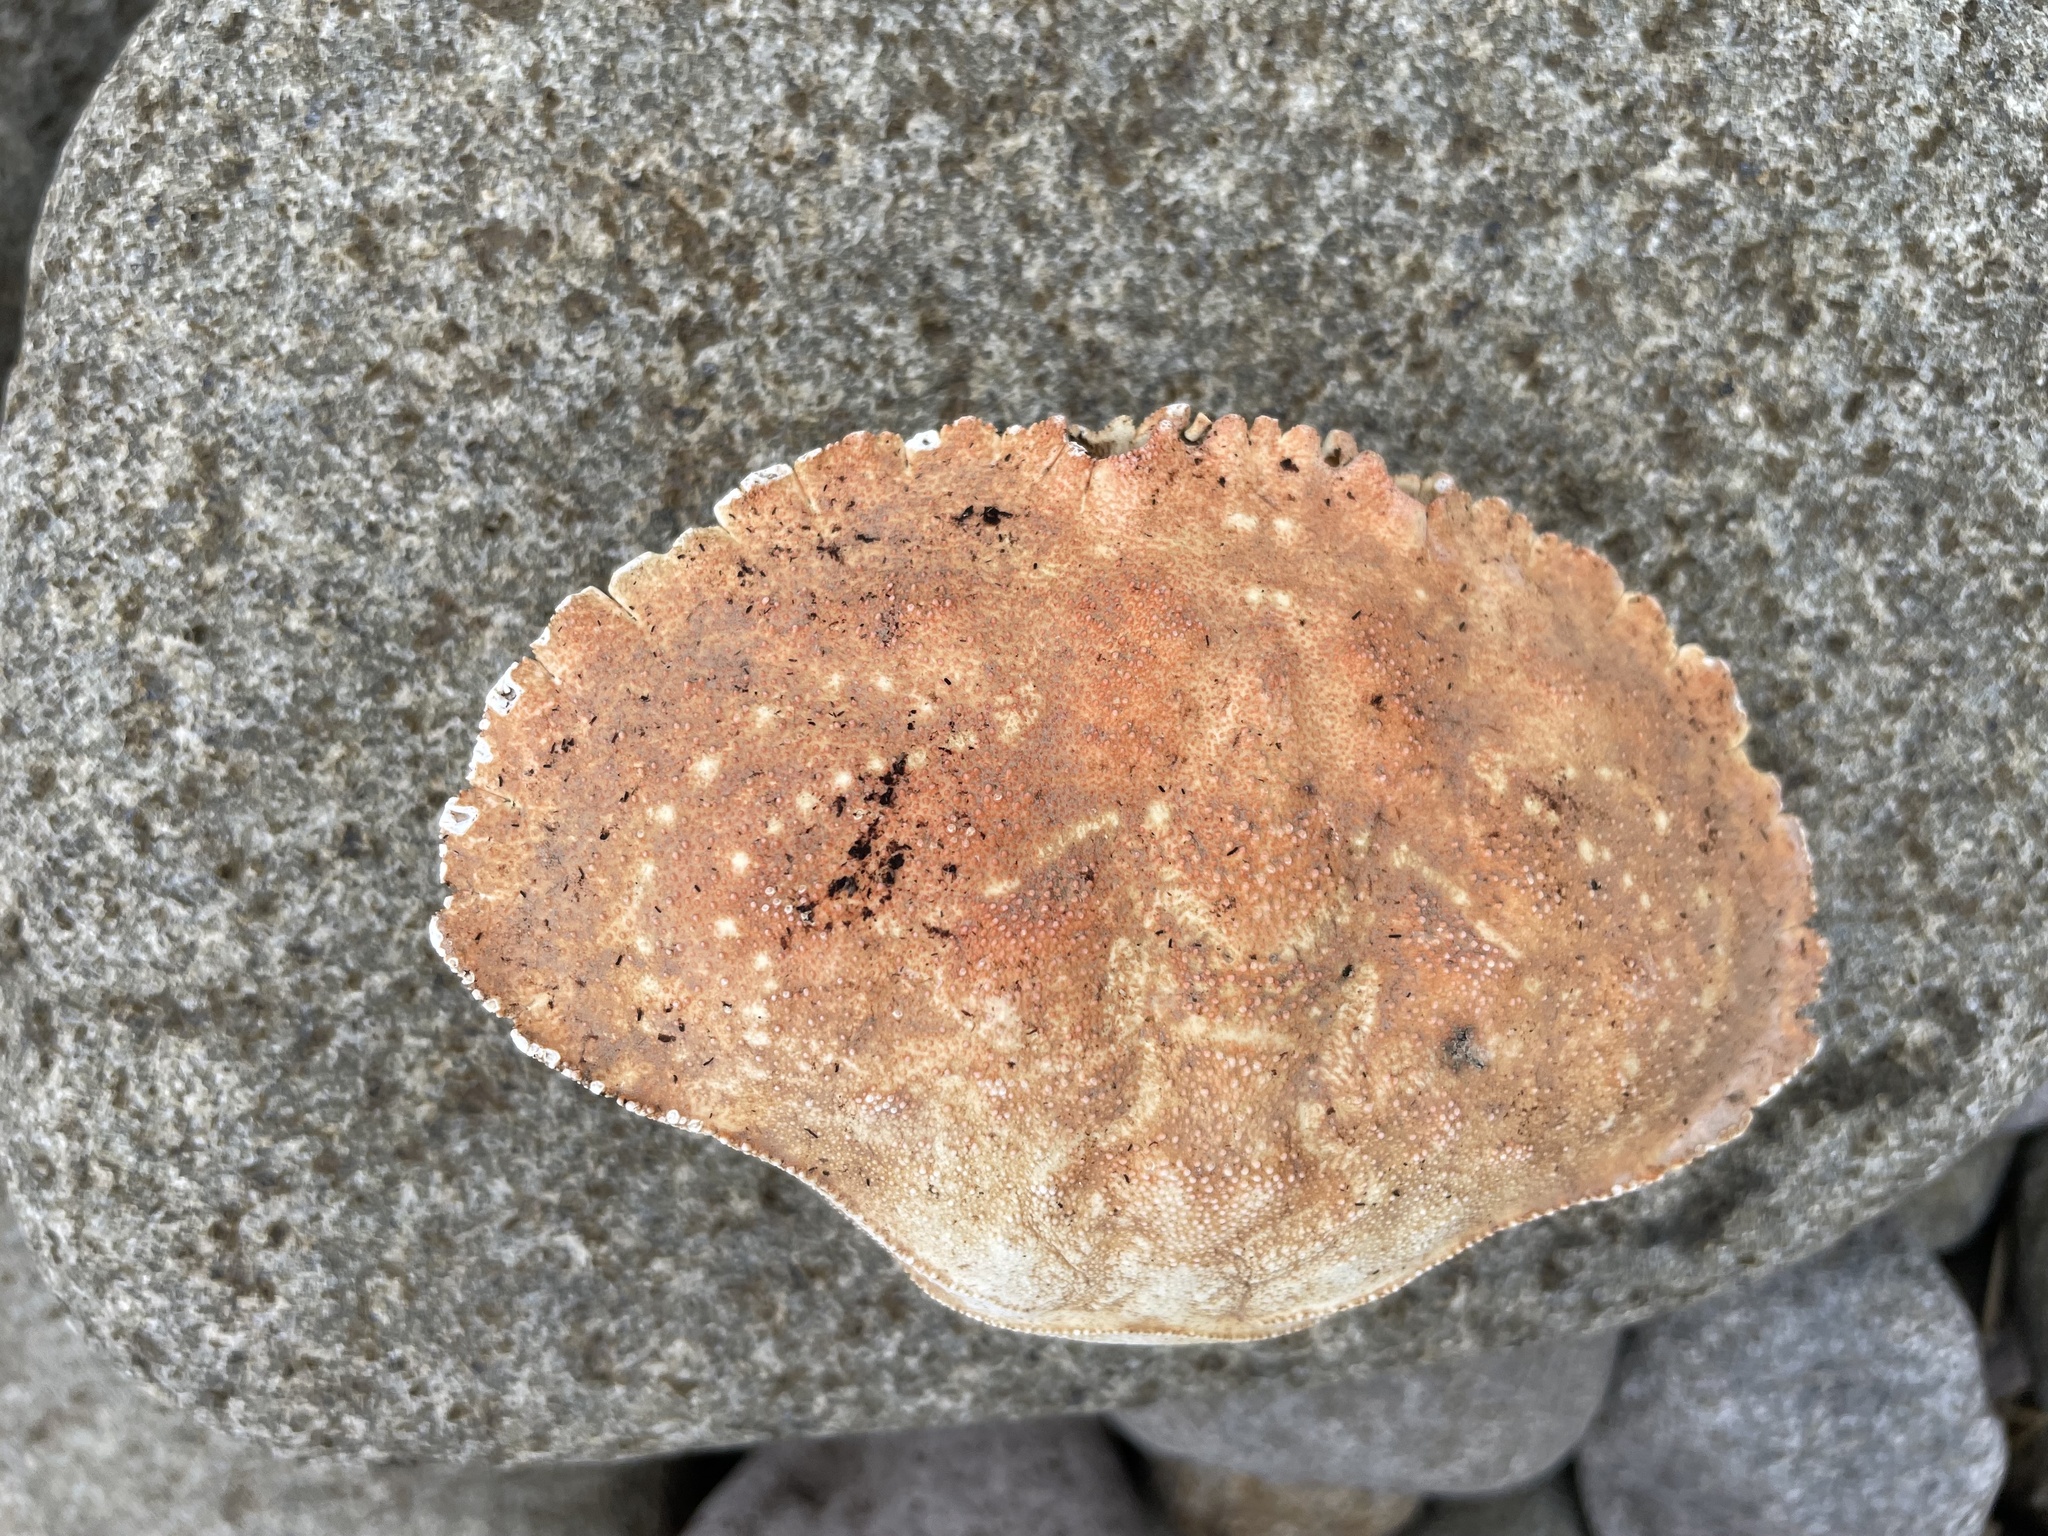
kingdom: Animalia
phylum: Arthropoda
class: Malacostraca
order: Decapoda
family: Cancridae
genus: Cancer
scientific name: Cancer borealis
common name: Jonah crab
